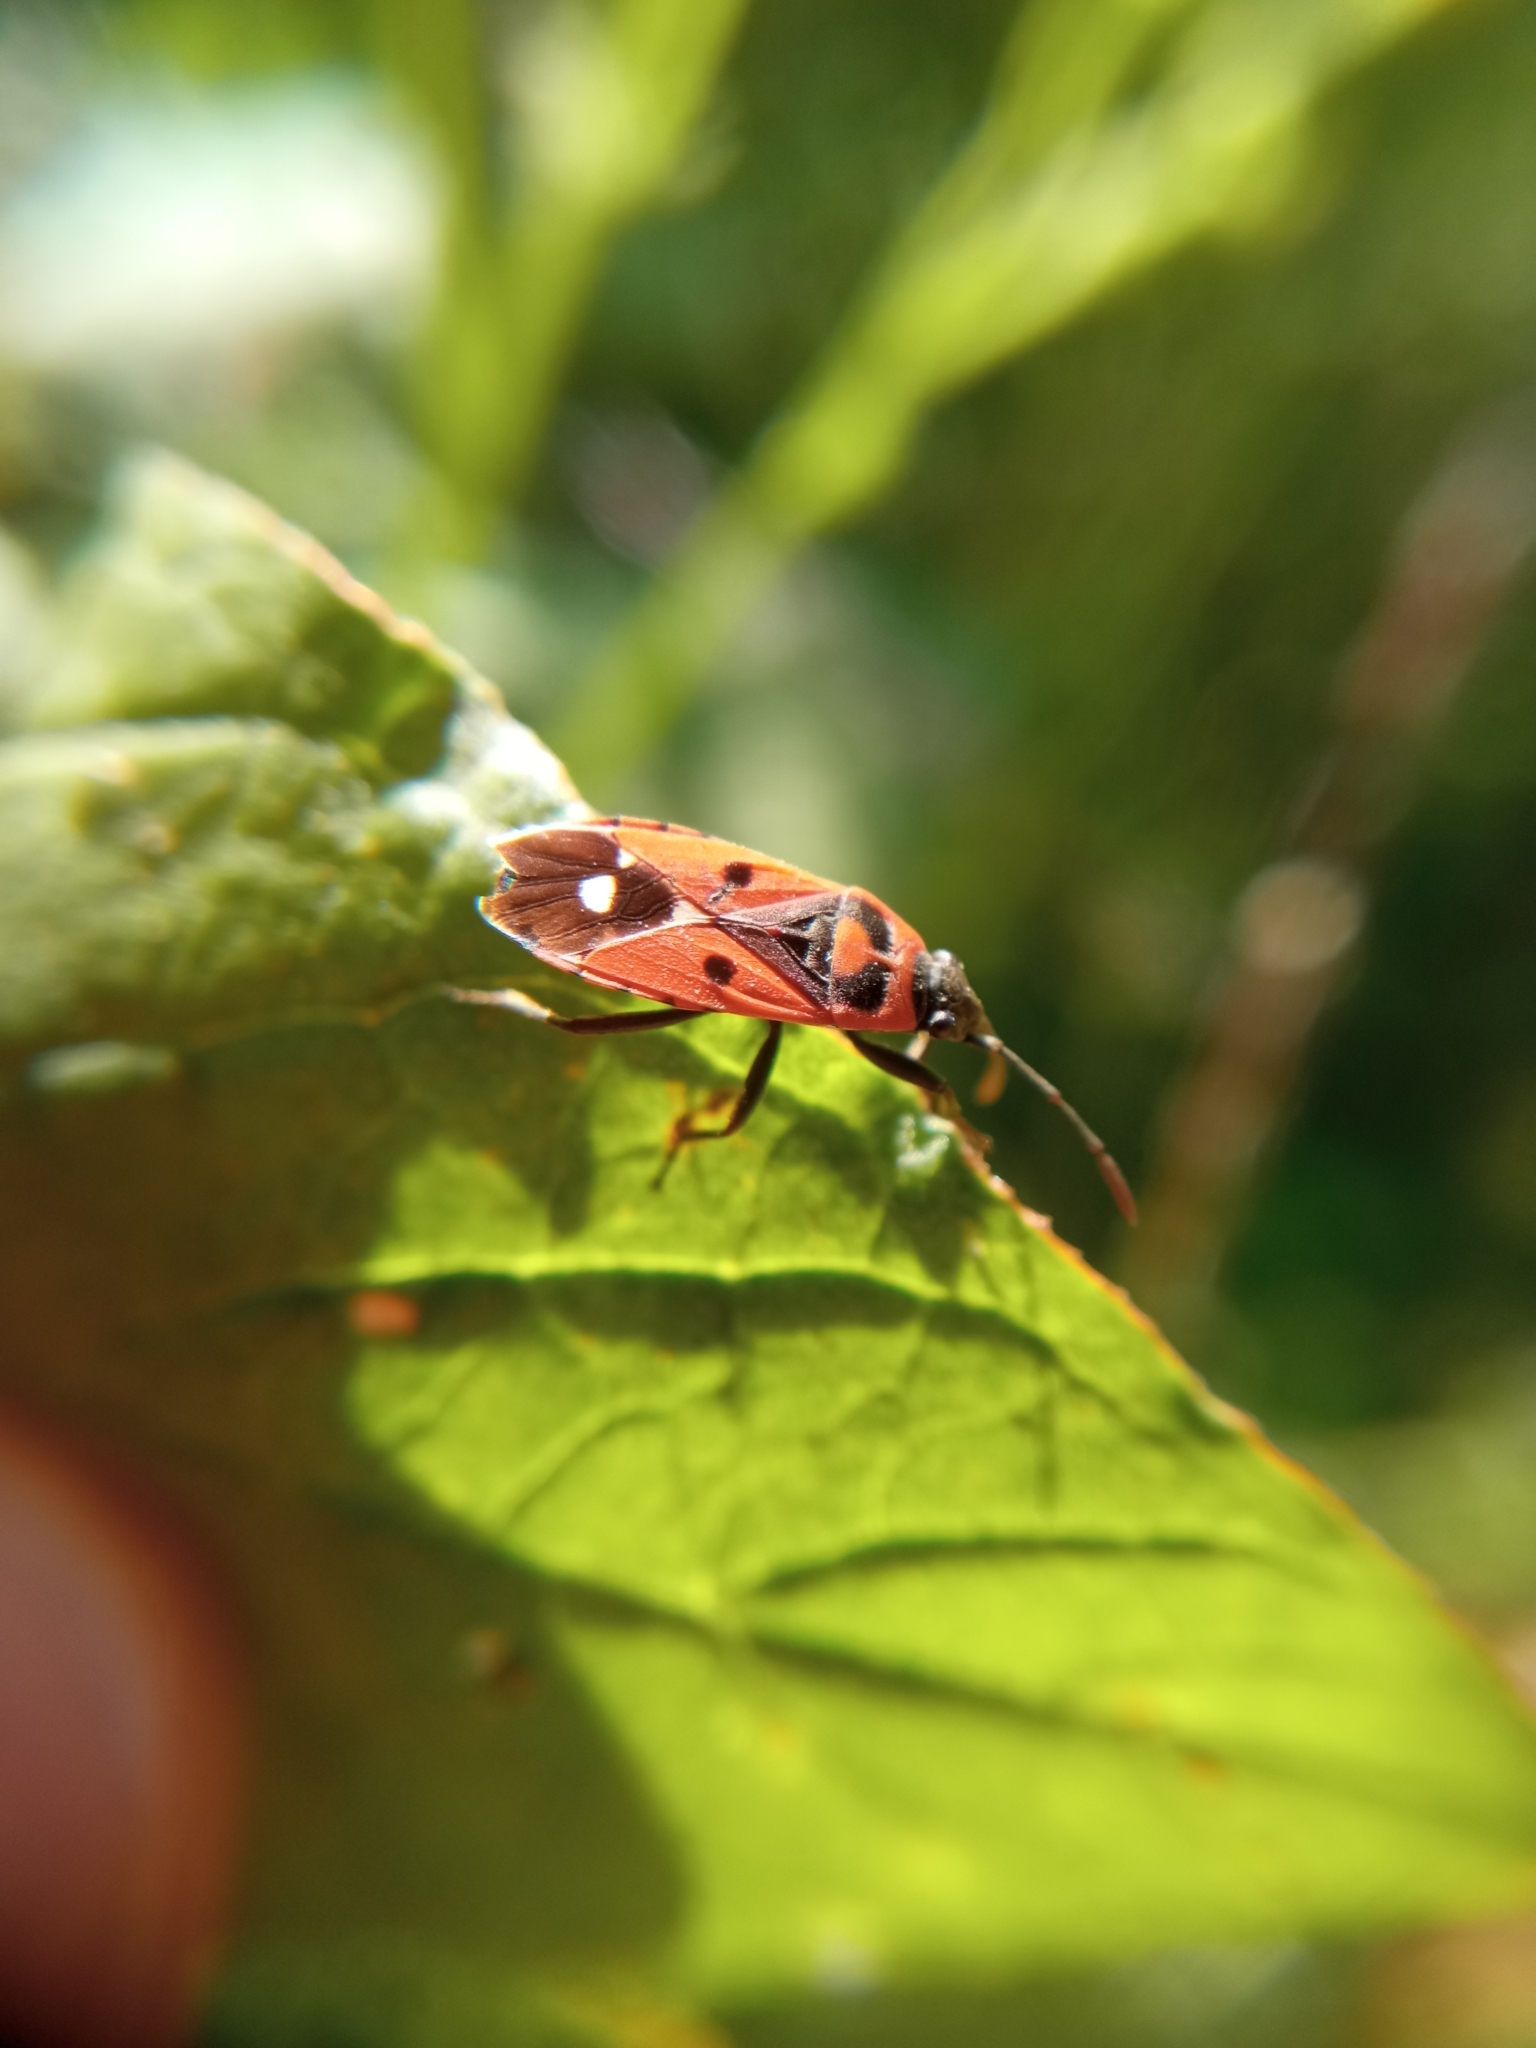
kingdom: Animalia
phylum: Arthropoda
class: Insecta
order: Hemiptera
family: Lygaeidae
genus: Melanocoryphus
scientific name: Melanocoryphus albomaculatus
